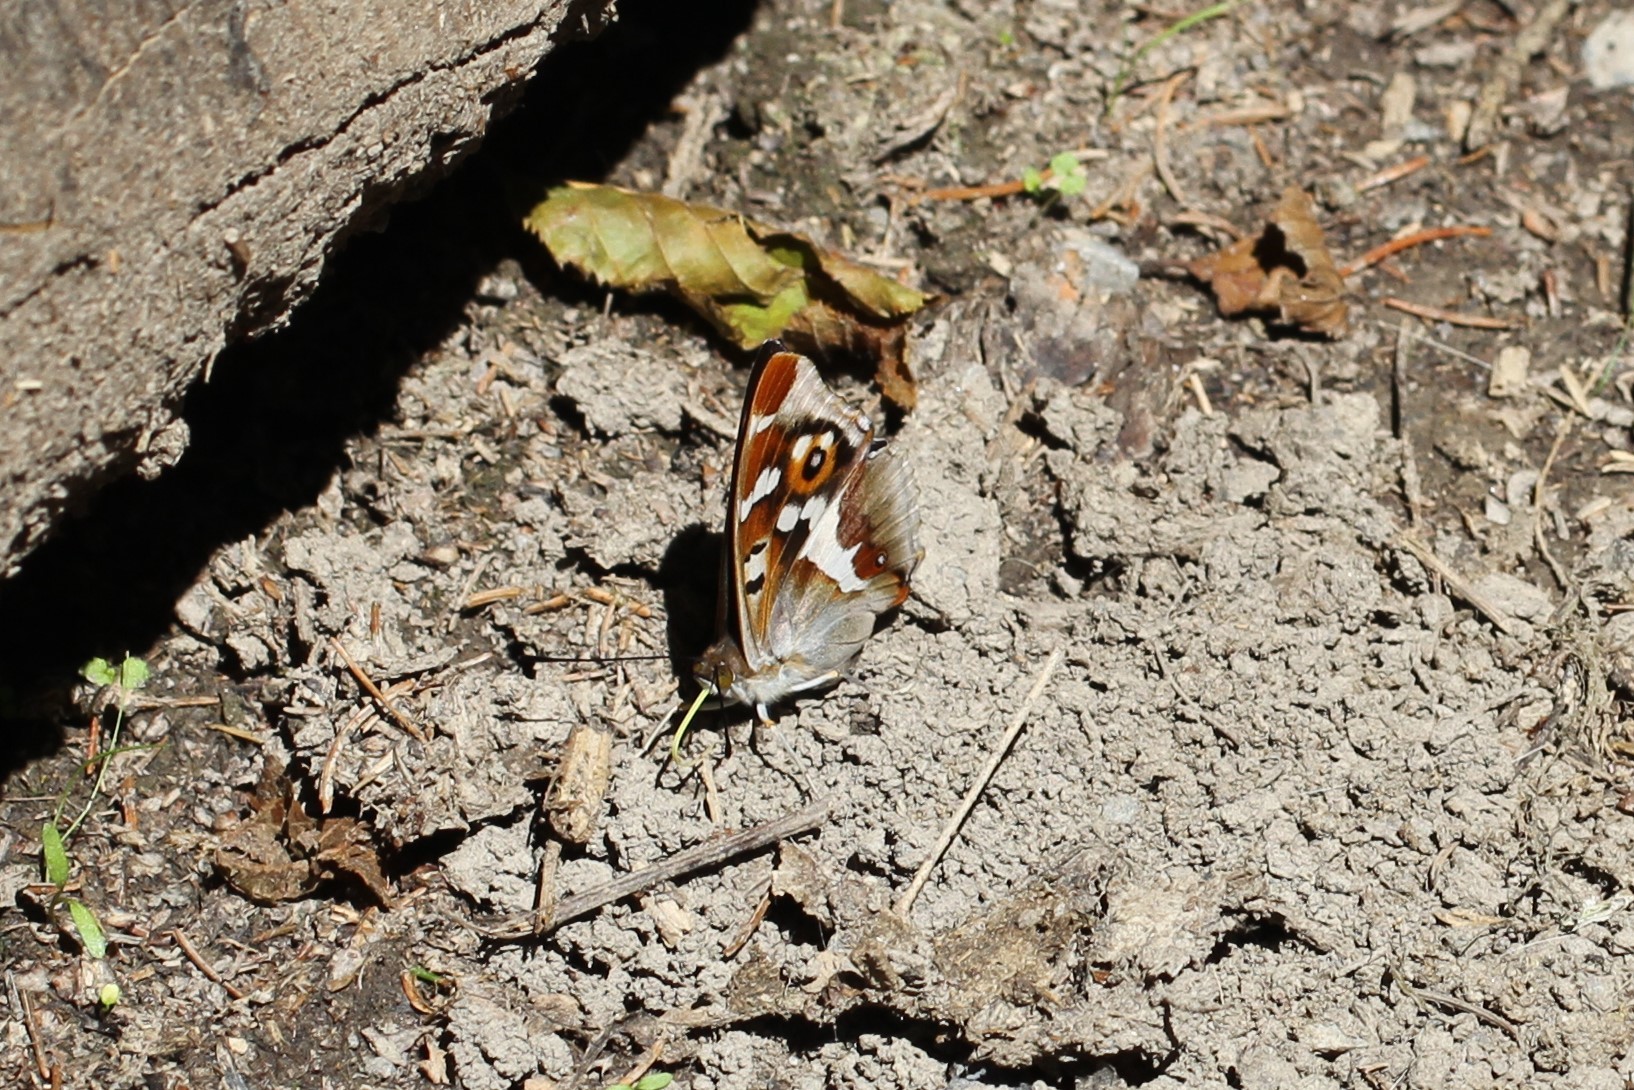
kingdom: Animalia
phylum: Arthropoda
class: Insecta
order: Lepidoptera
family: Nymphalidae
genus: Apatura
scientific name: Apatura iris
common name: Purple emperor
